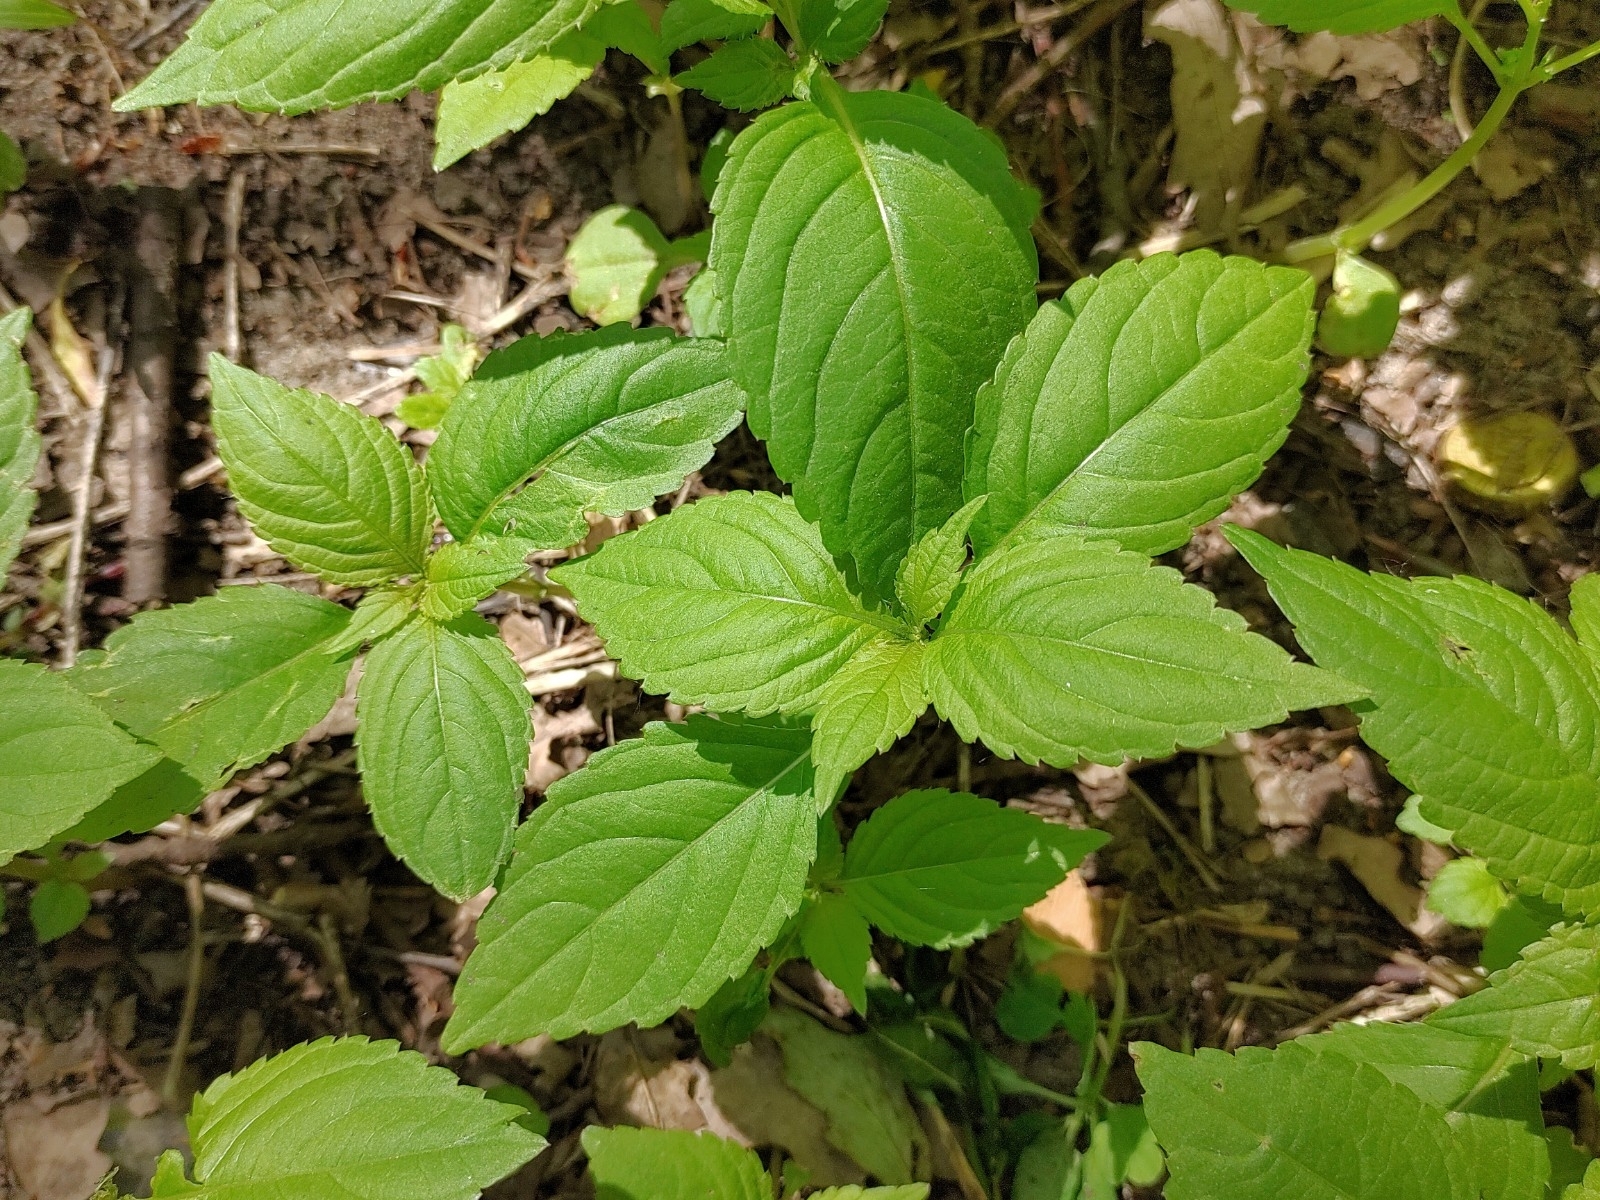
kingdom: Plantae
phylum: Tracheophyta
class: Magnoliopsida
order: Ericales
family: Balsaminaceae
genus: Impatiens
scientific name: Impatiens parviflora
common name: Small balsam
